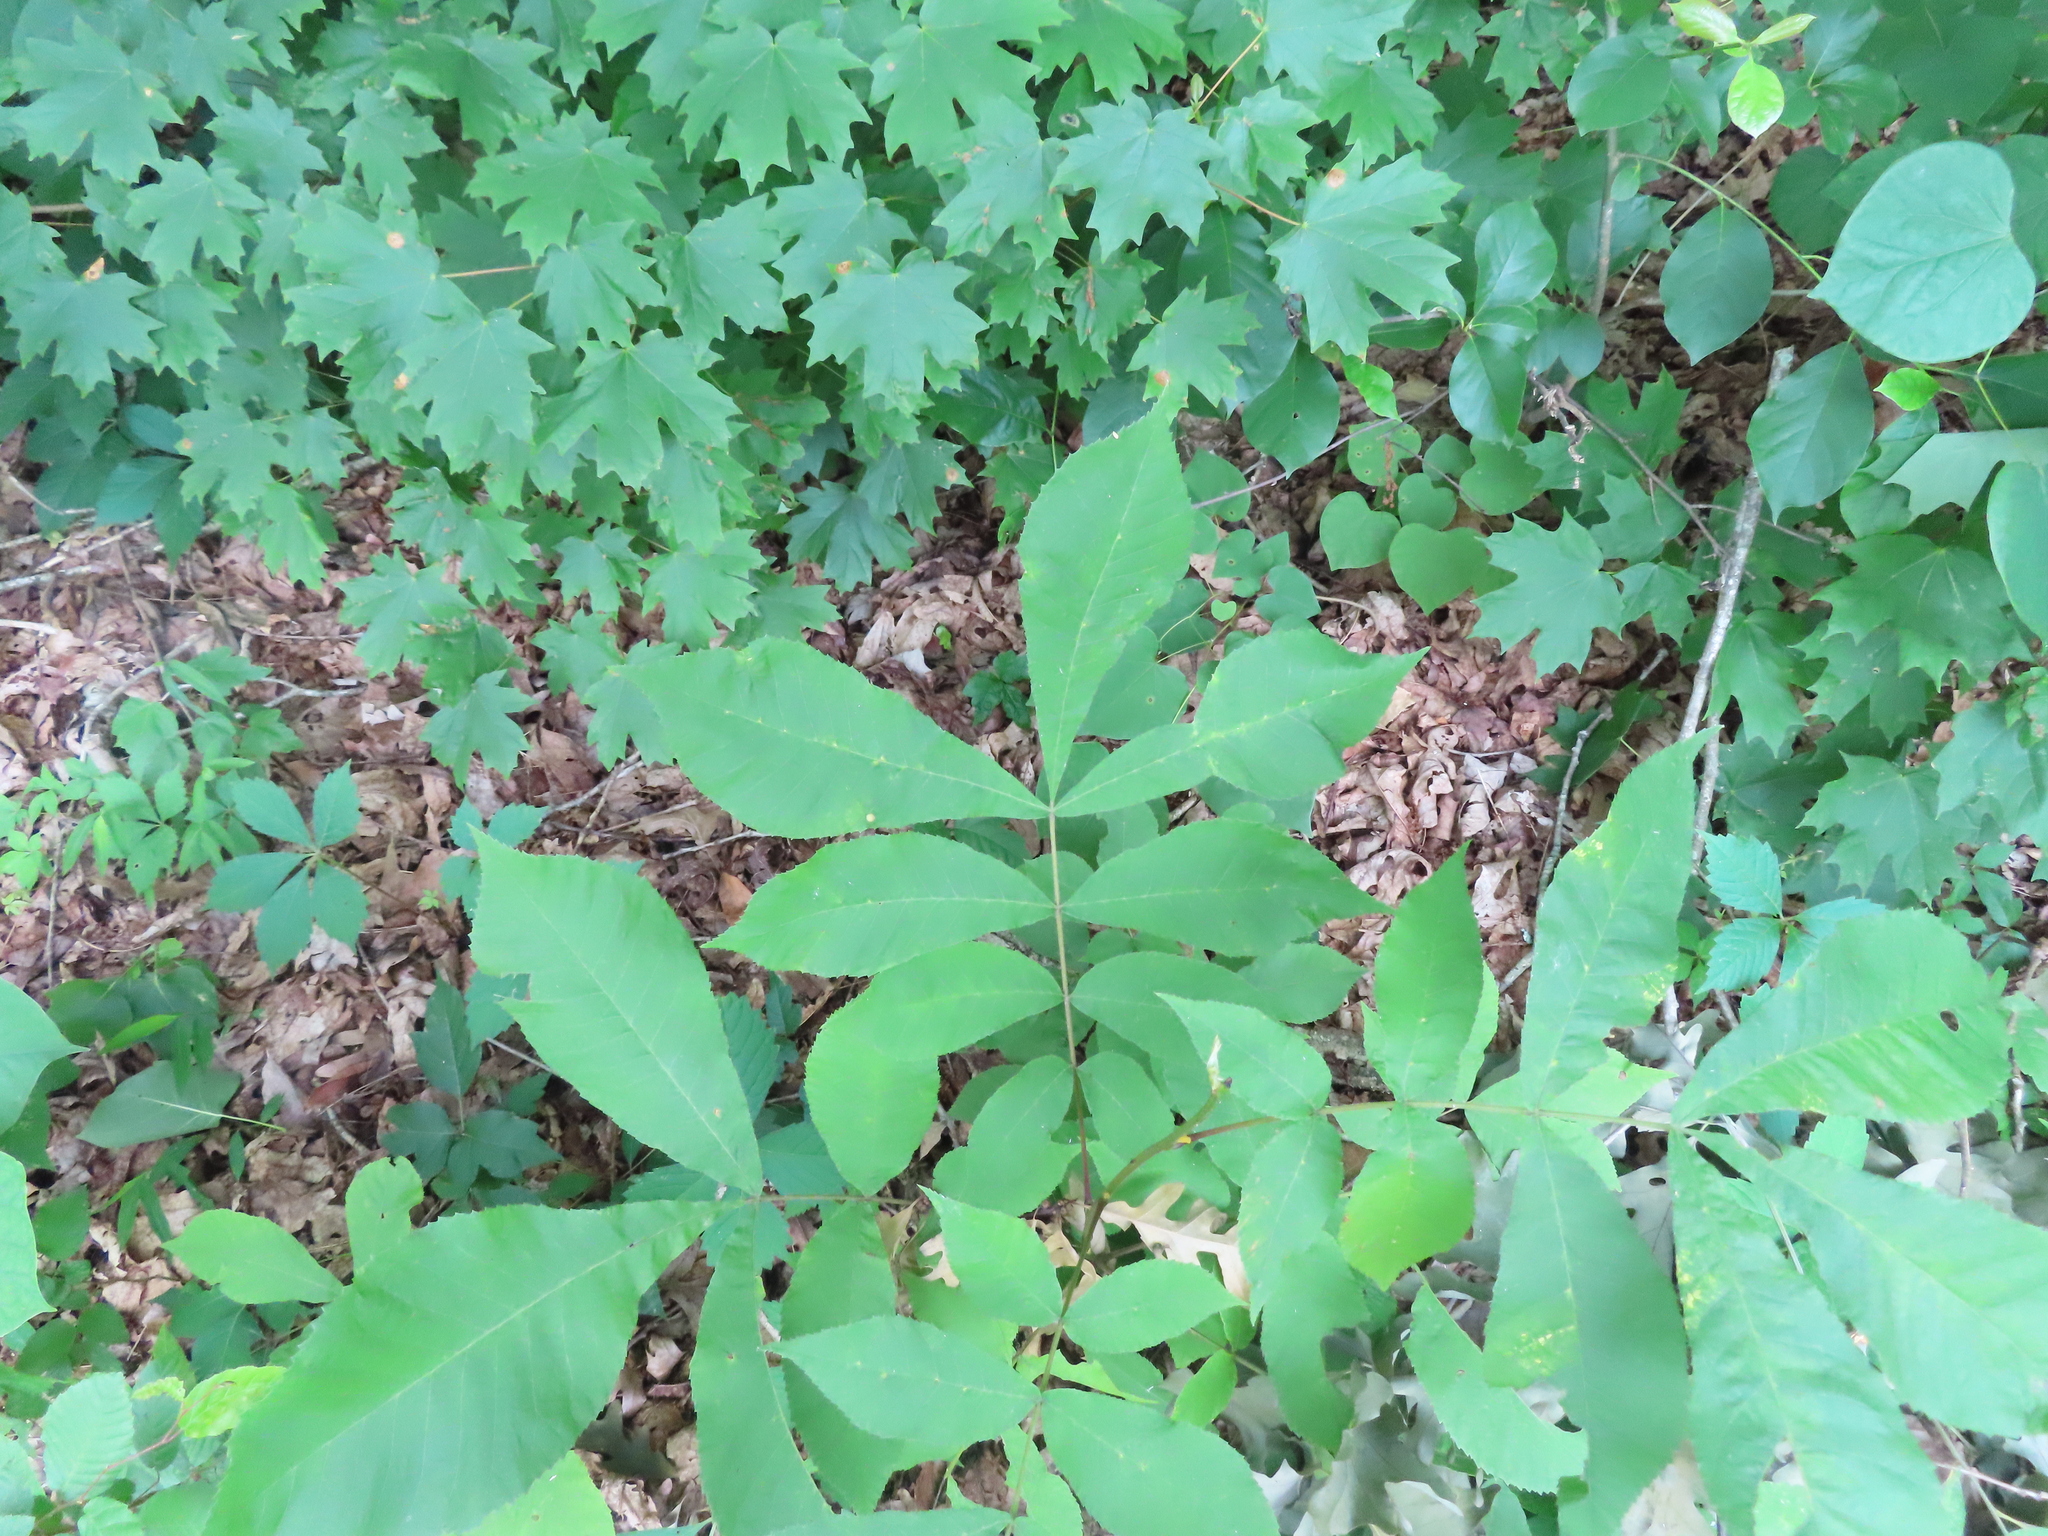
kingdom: Animalia
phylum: Arthropoda
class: Insecta
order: Diptera
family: Cecidomyiidae
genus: Caryomyia
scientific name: Caryomyia cilidolium
